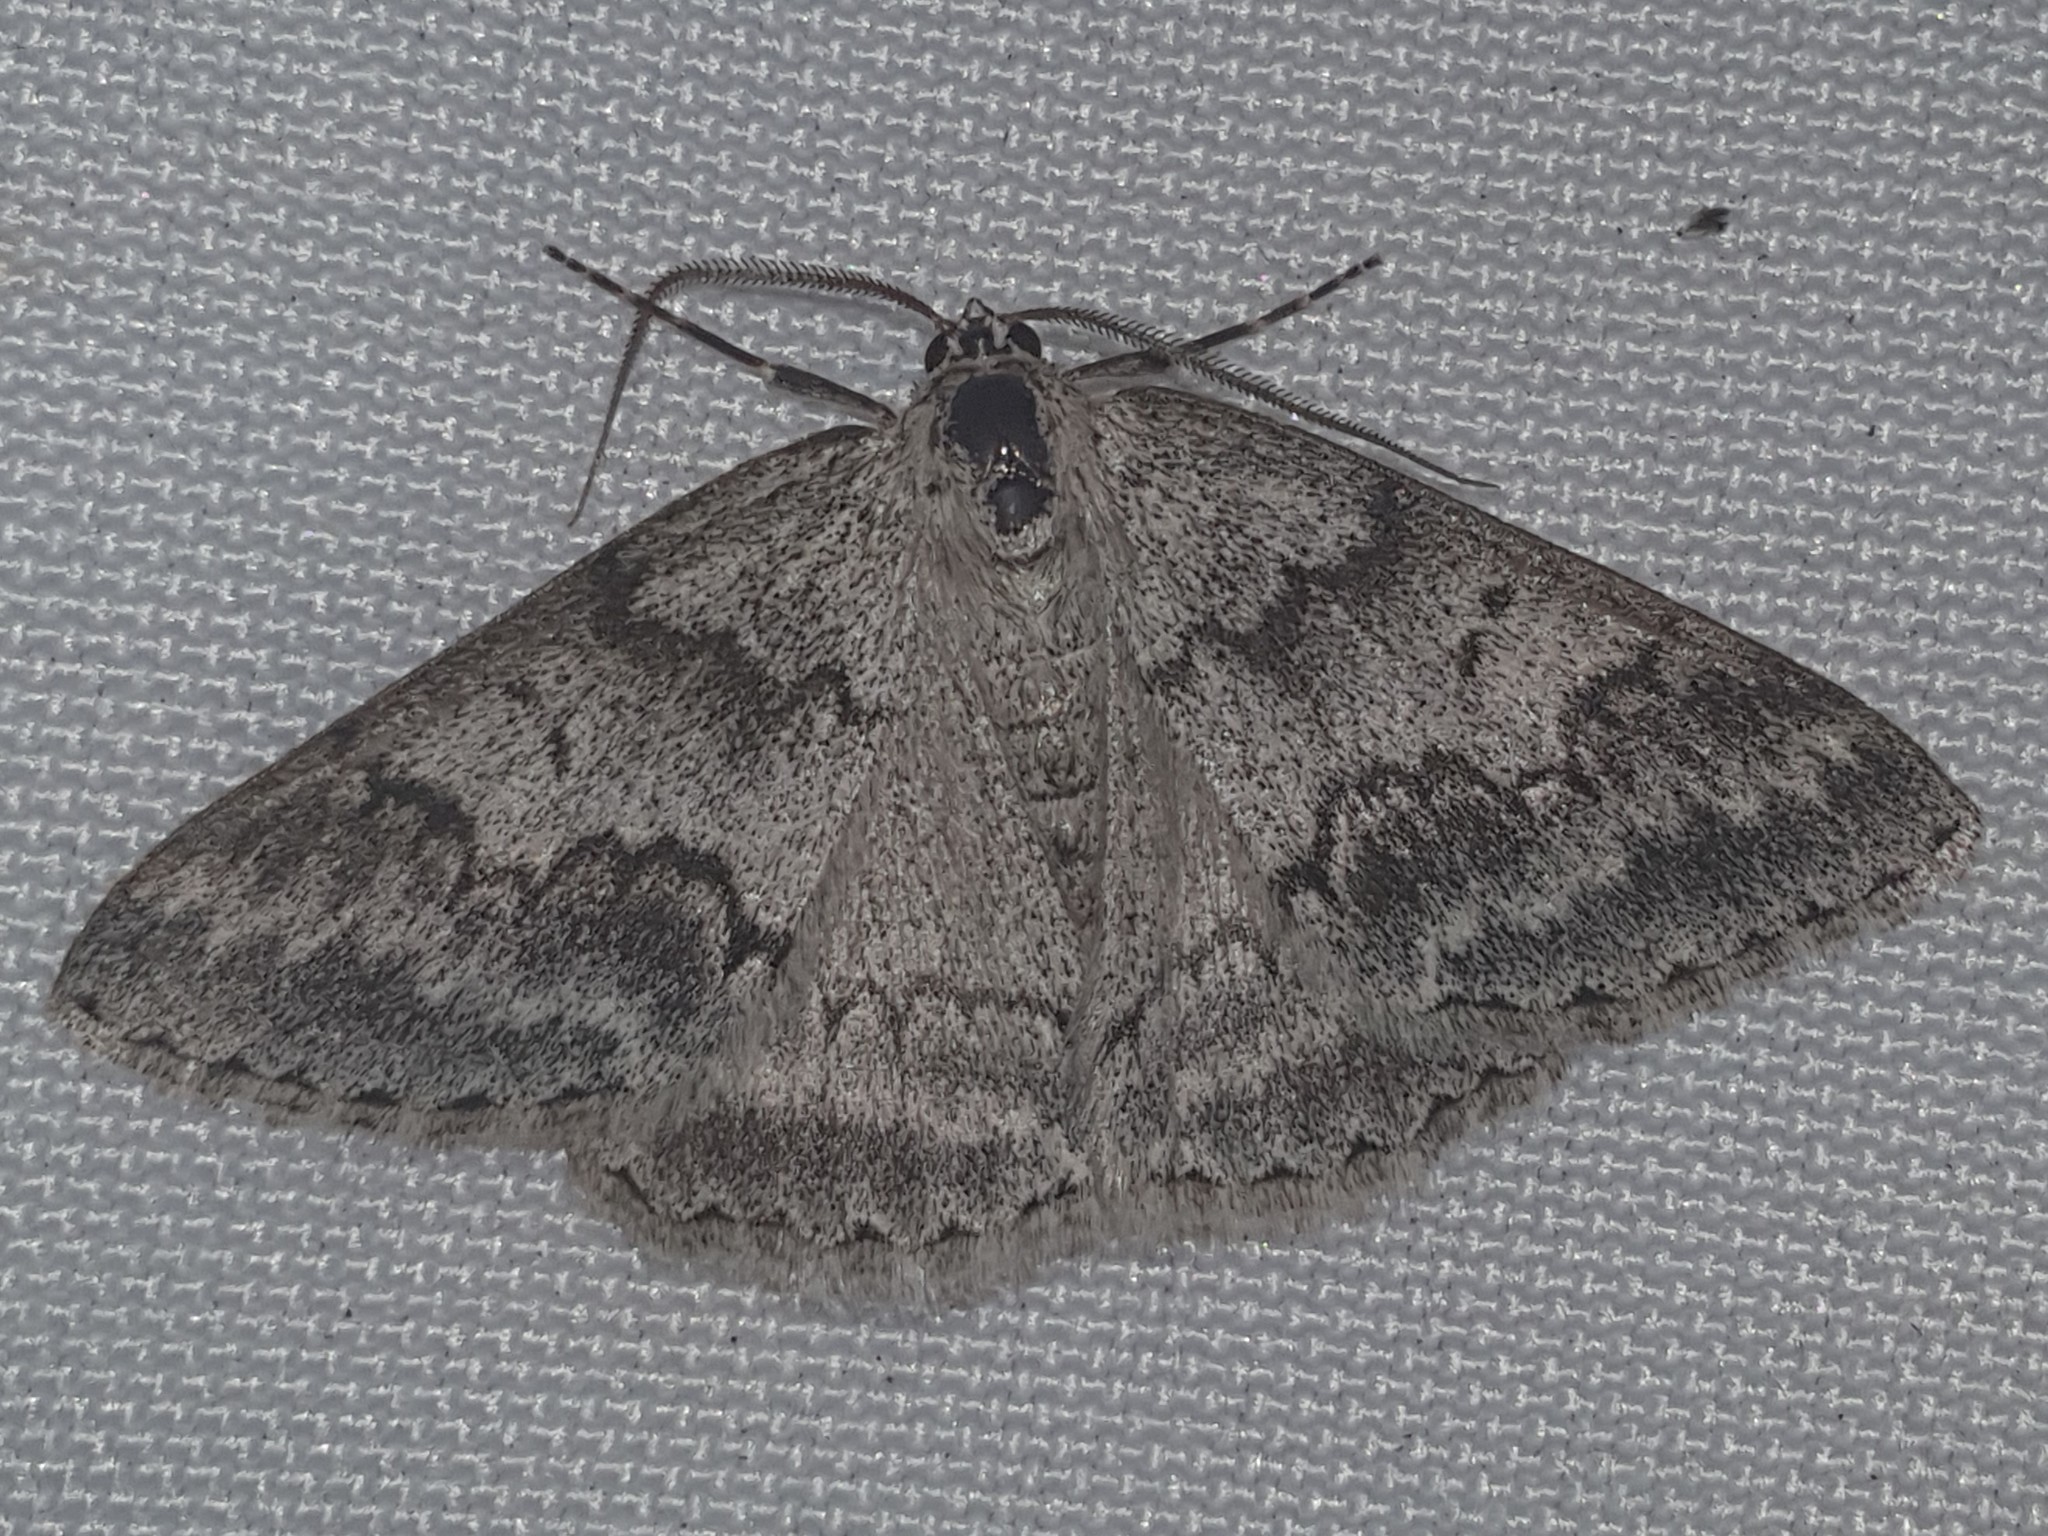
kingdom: Animalia
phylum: Arthropoda
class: Insecta
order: Lepidoptera
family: Geometridae
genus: Pseudoterpna
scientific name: Pseudoterpna coronillaria
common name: Jersey emerald
